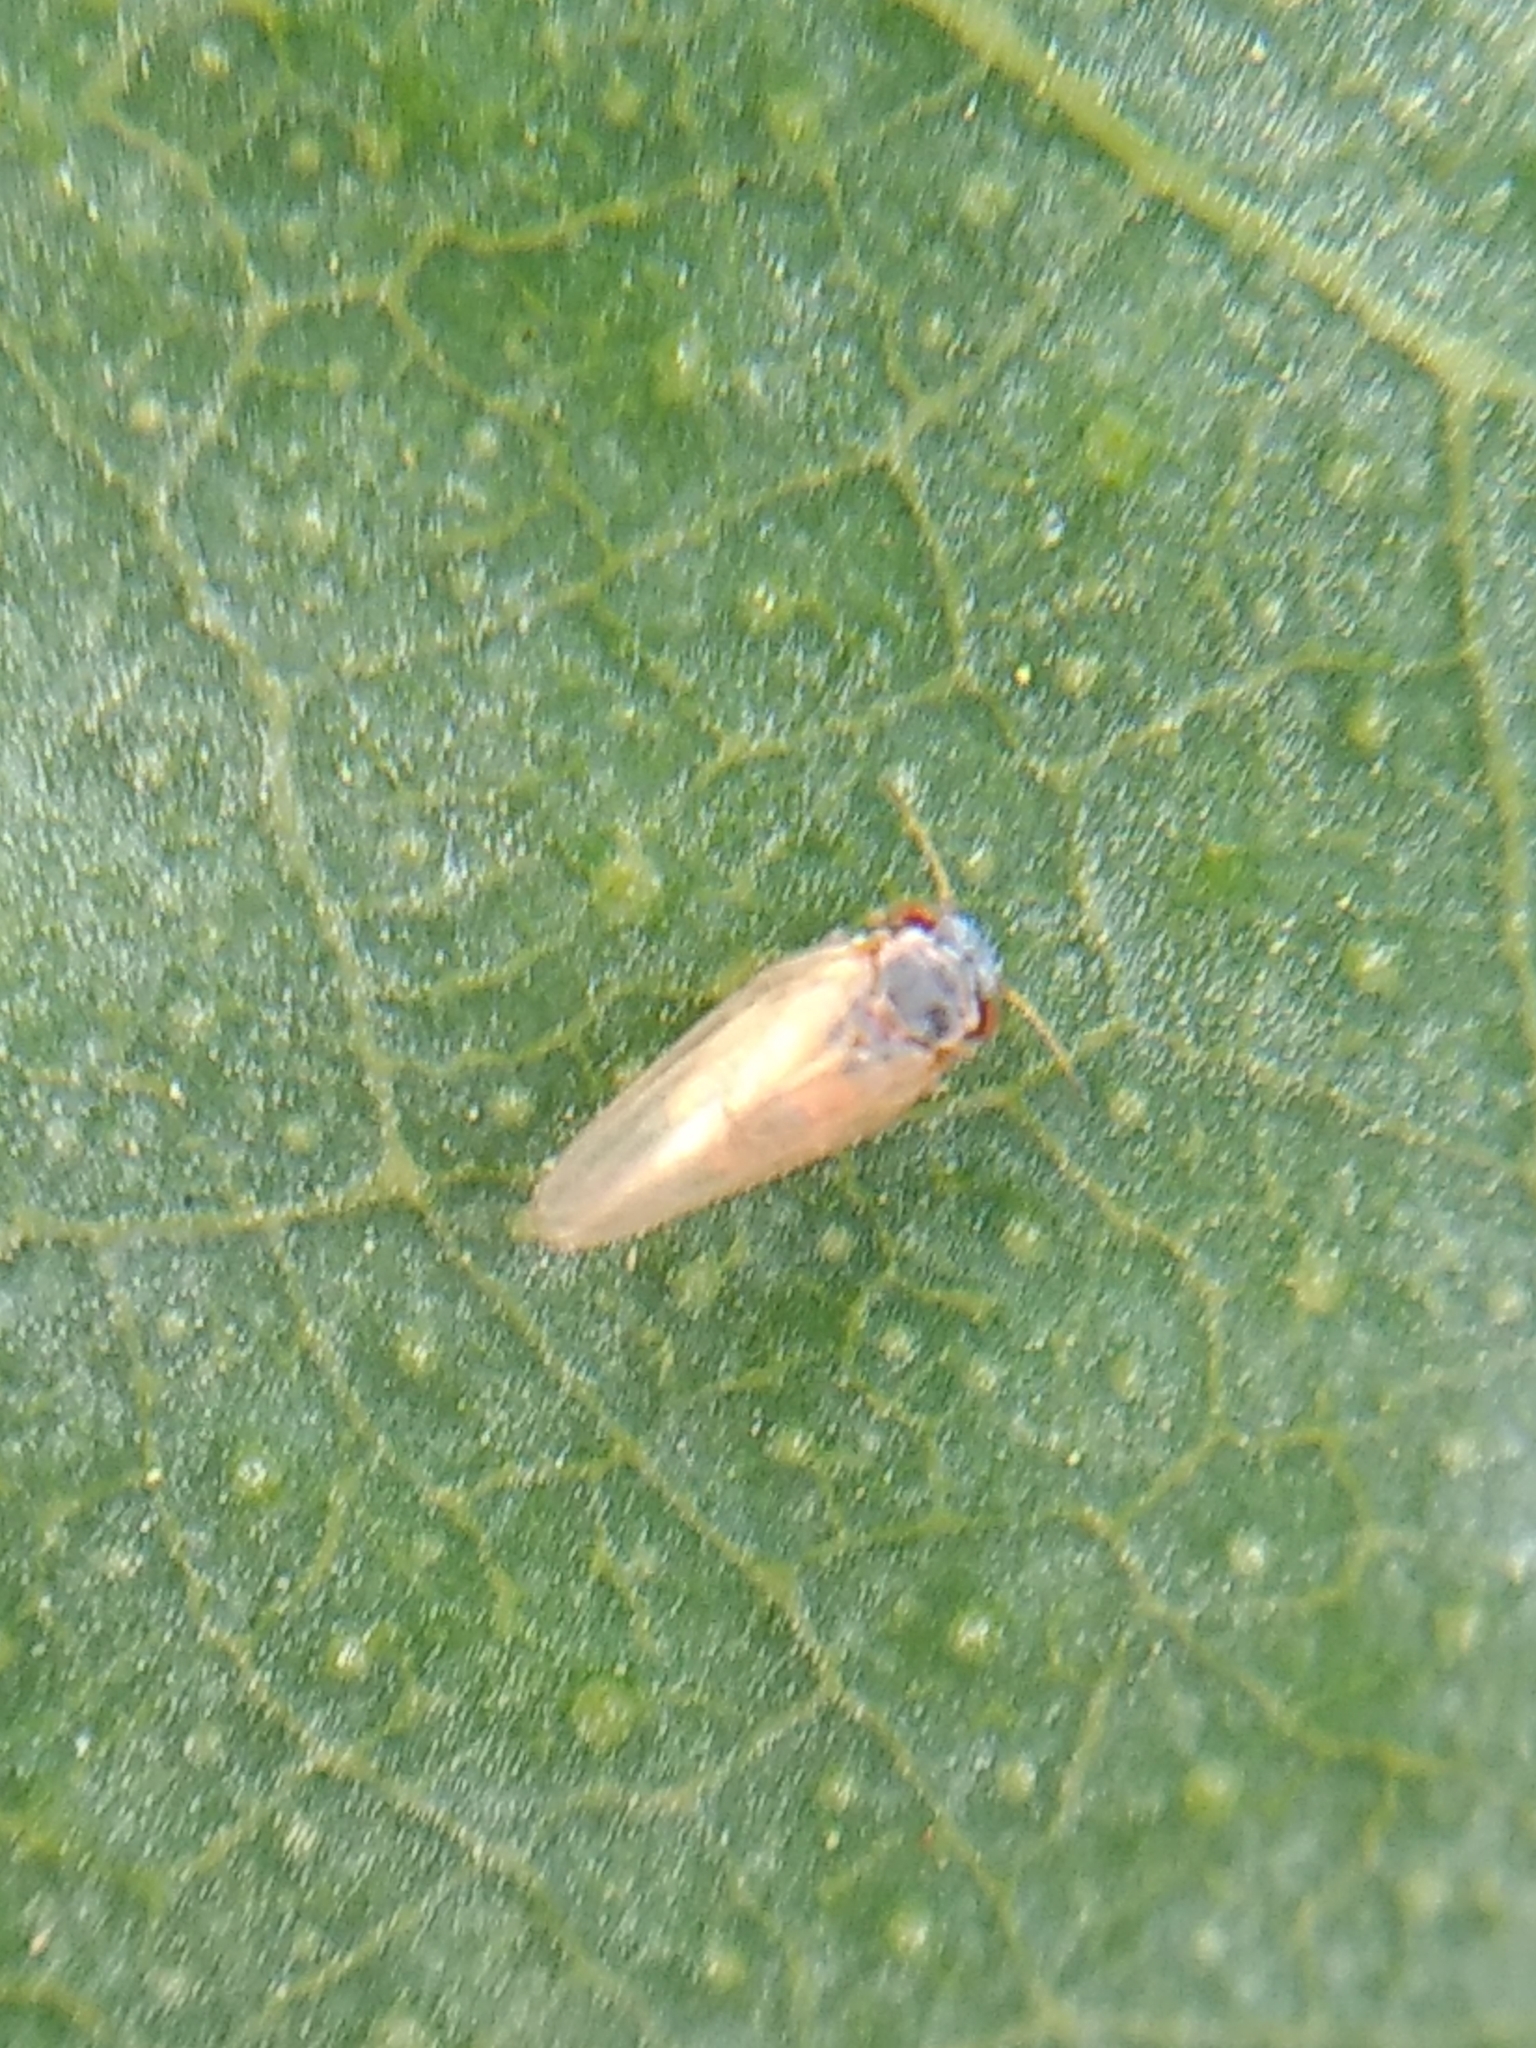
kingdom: Animalia
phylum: Arthropoda
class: Insecta
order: Hemiptera
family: Aphalaridae
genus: Ctenarytaina
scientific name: Ctenarytaina eucalypti
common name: Blue gum psyllid
